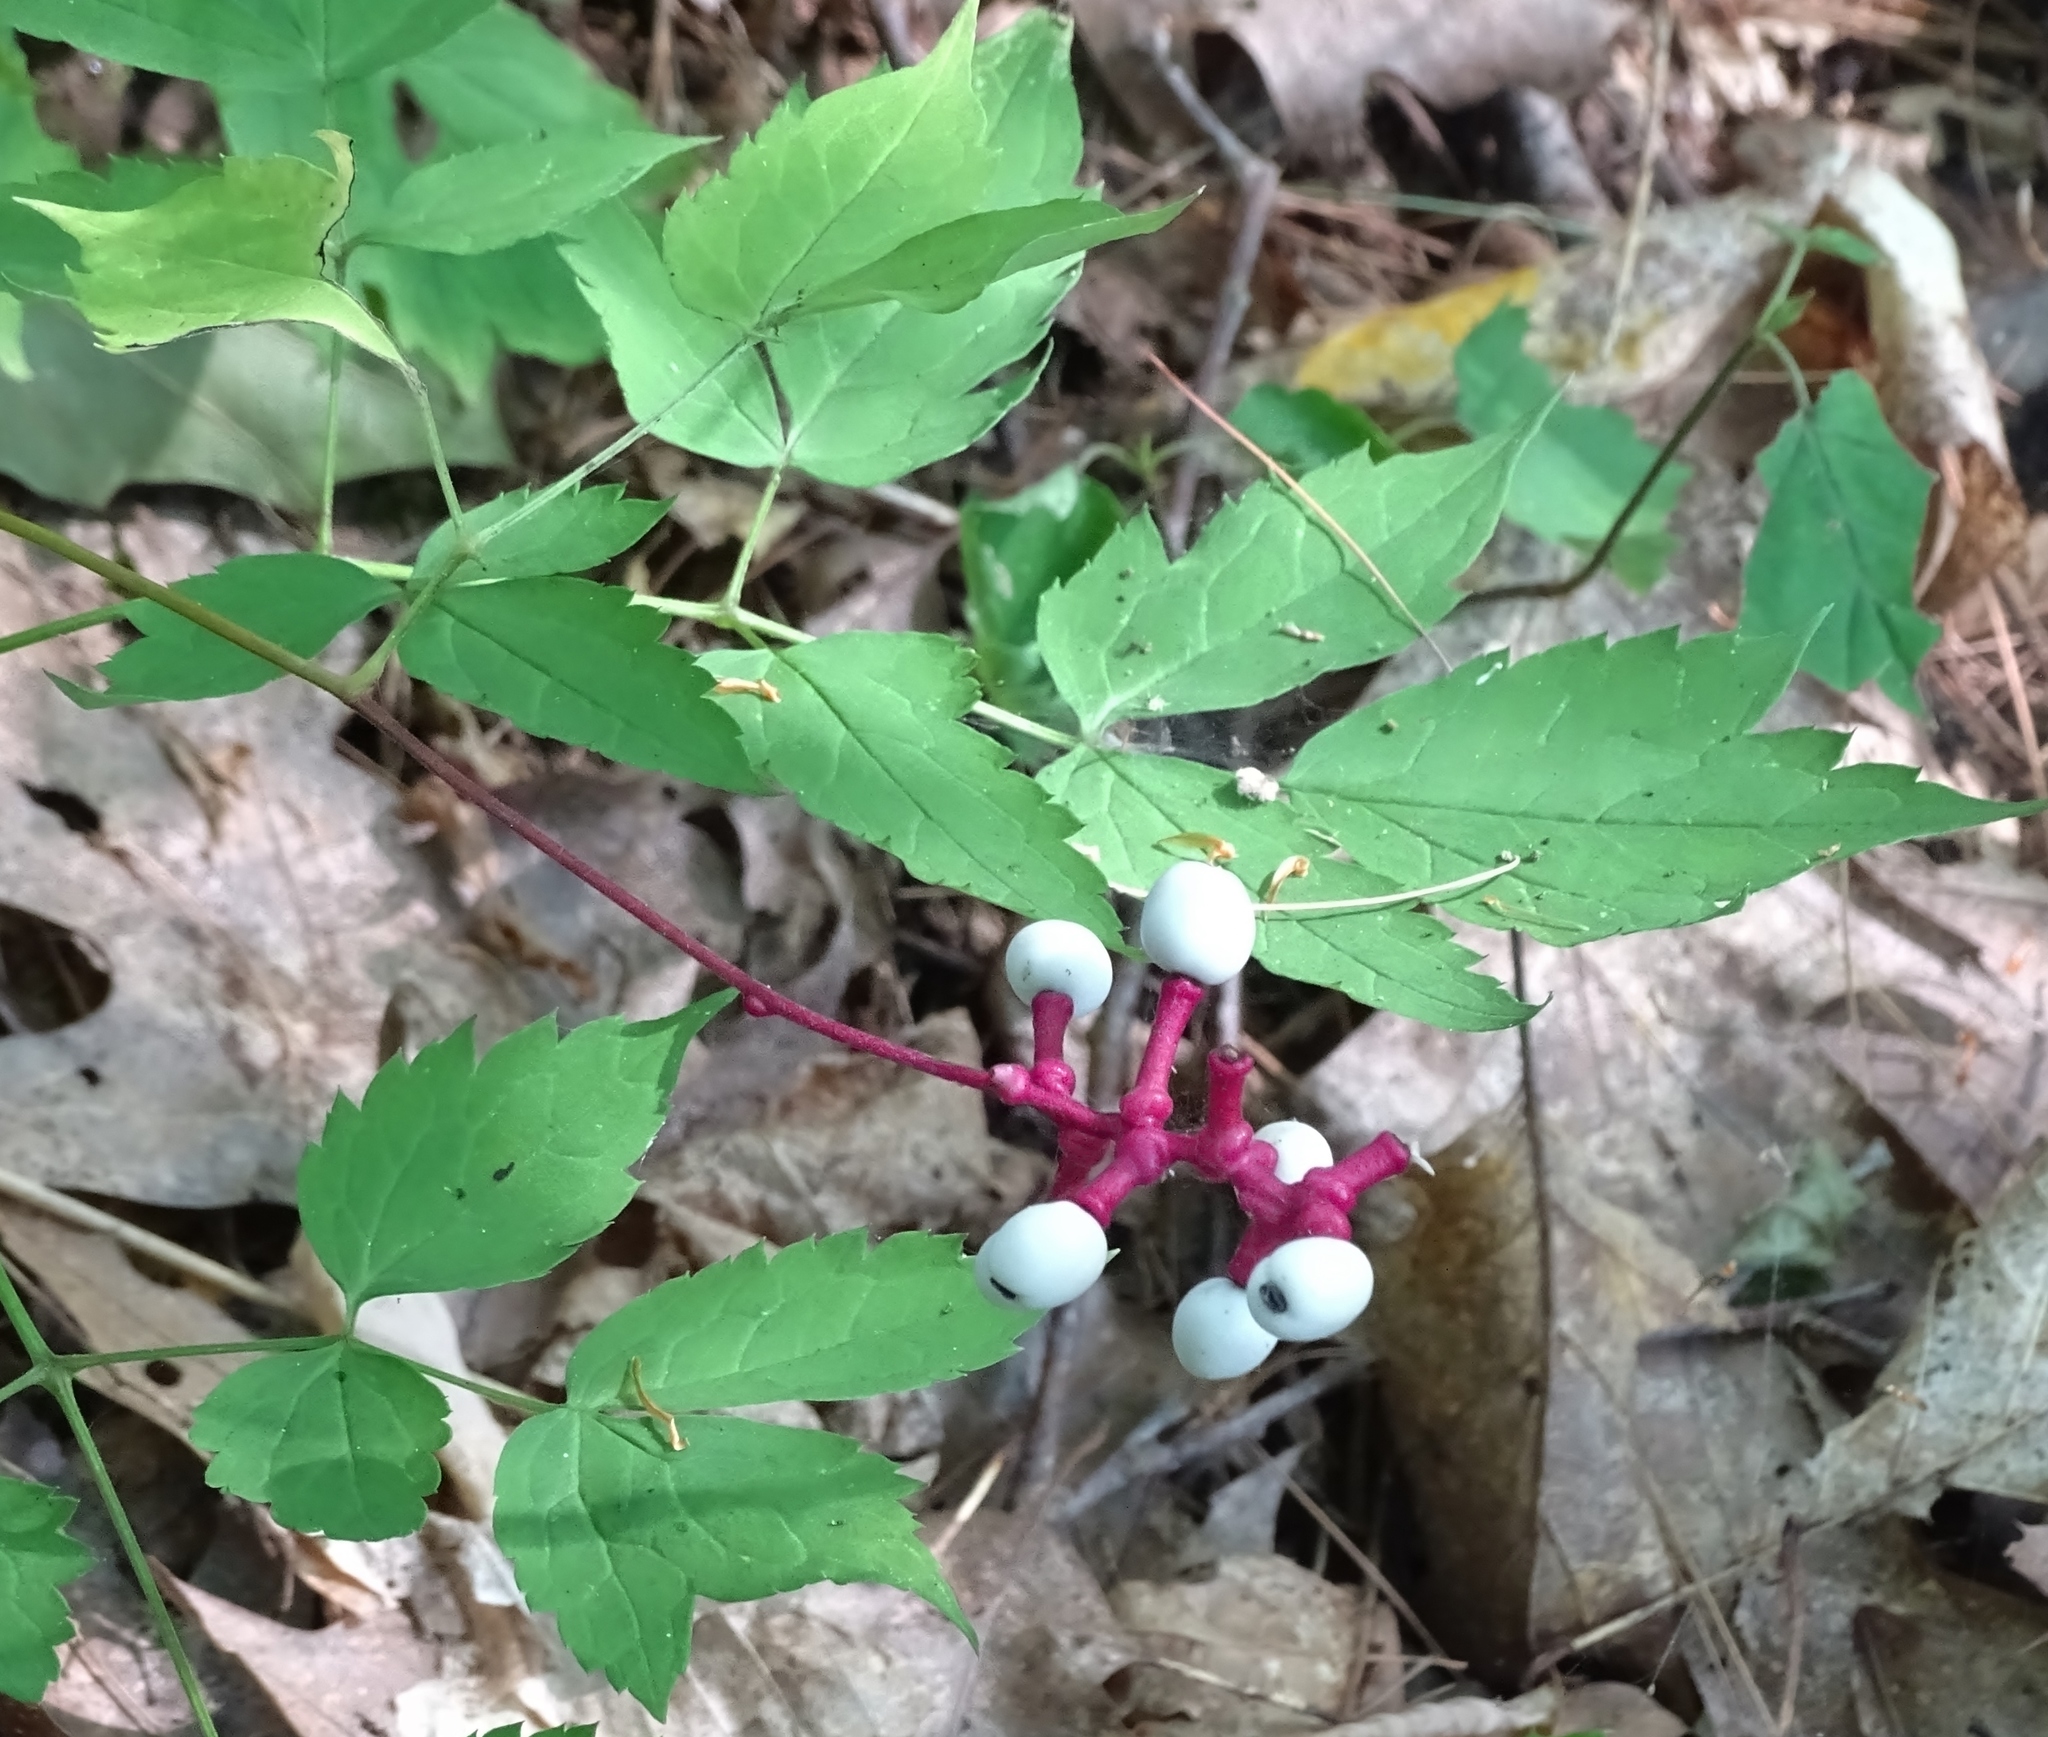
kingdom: Plantae
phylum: Tracheophyta
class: Magnoliopsida
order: Ranunculales
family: Ranunculaceae
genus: Actaea
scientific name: Actaea pachypoda
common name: Doll's-eyes
